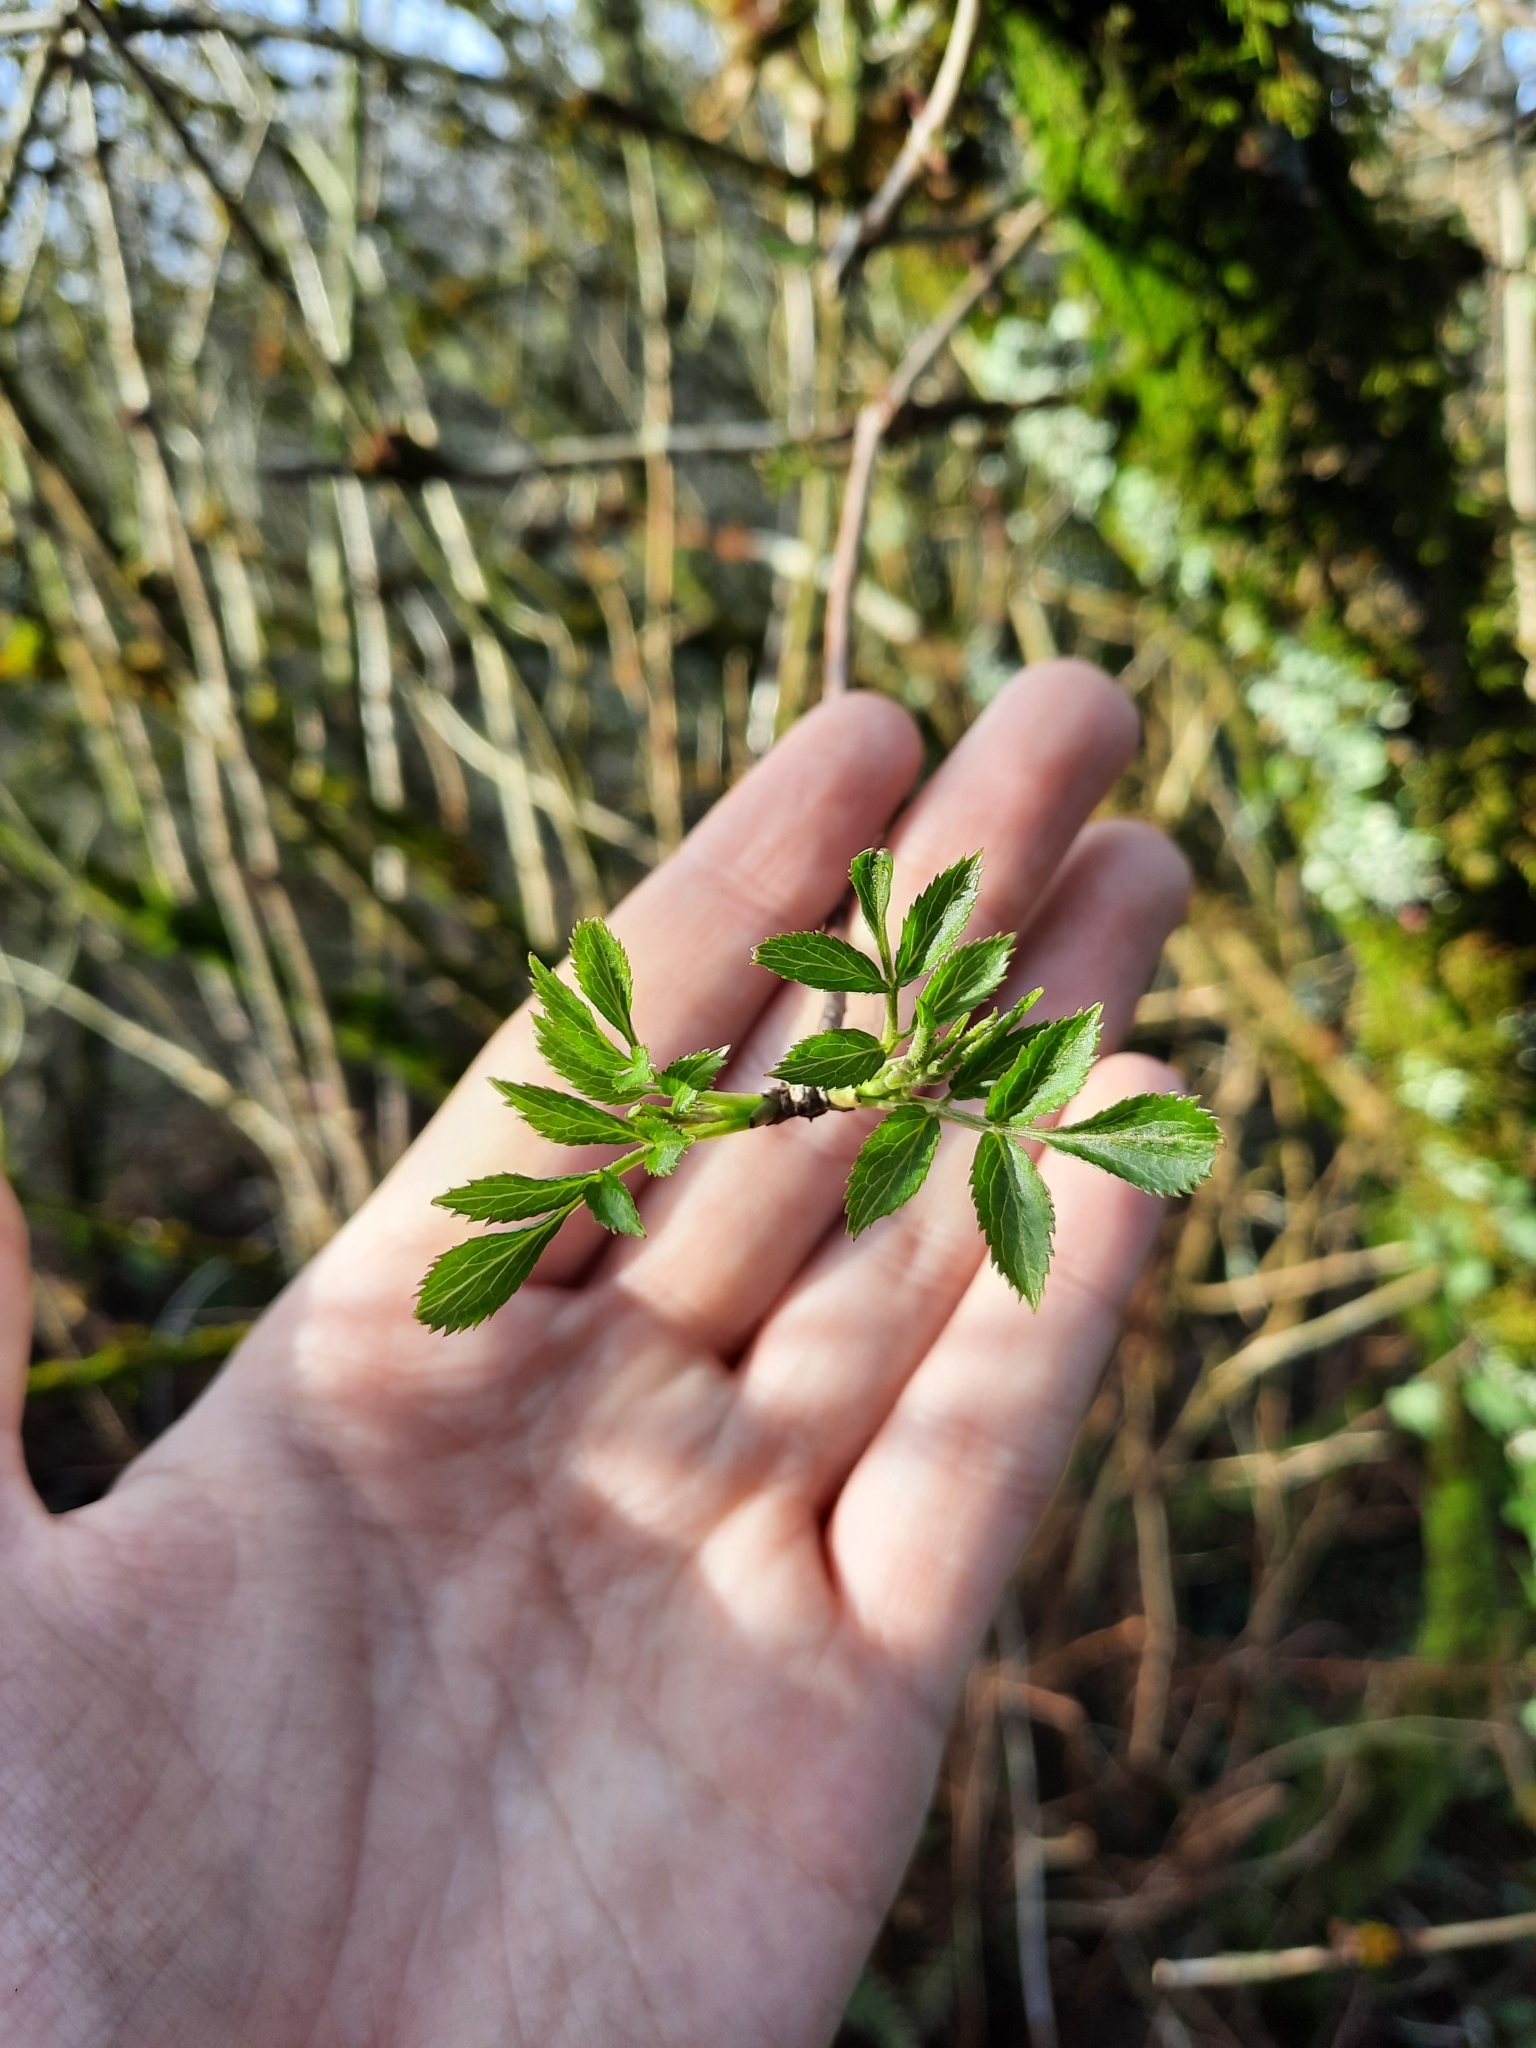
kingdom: Plantae
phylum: Tracheophyta
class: Magnoliopsida
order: Dipsacales
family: Viburnaceae
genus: Sambucus
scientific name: Sambucus nigra
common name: Elder
